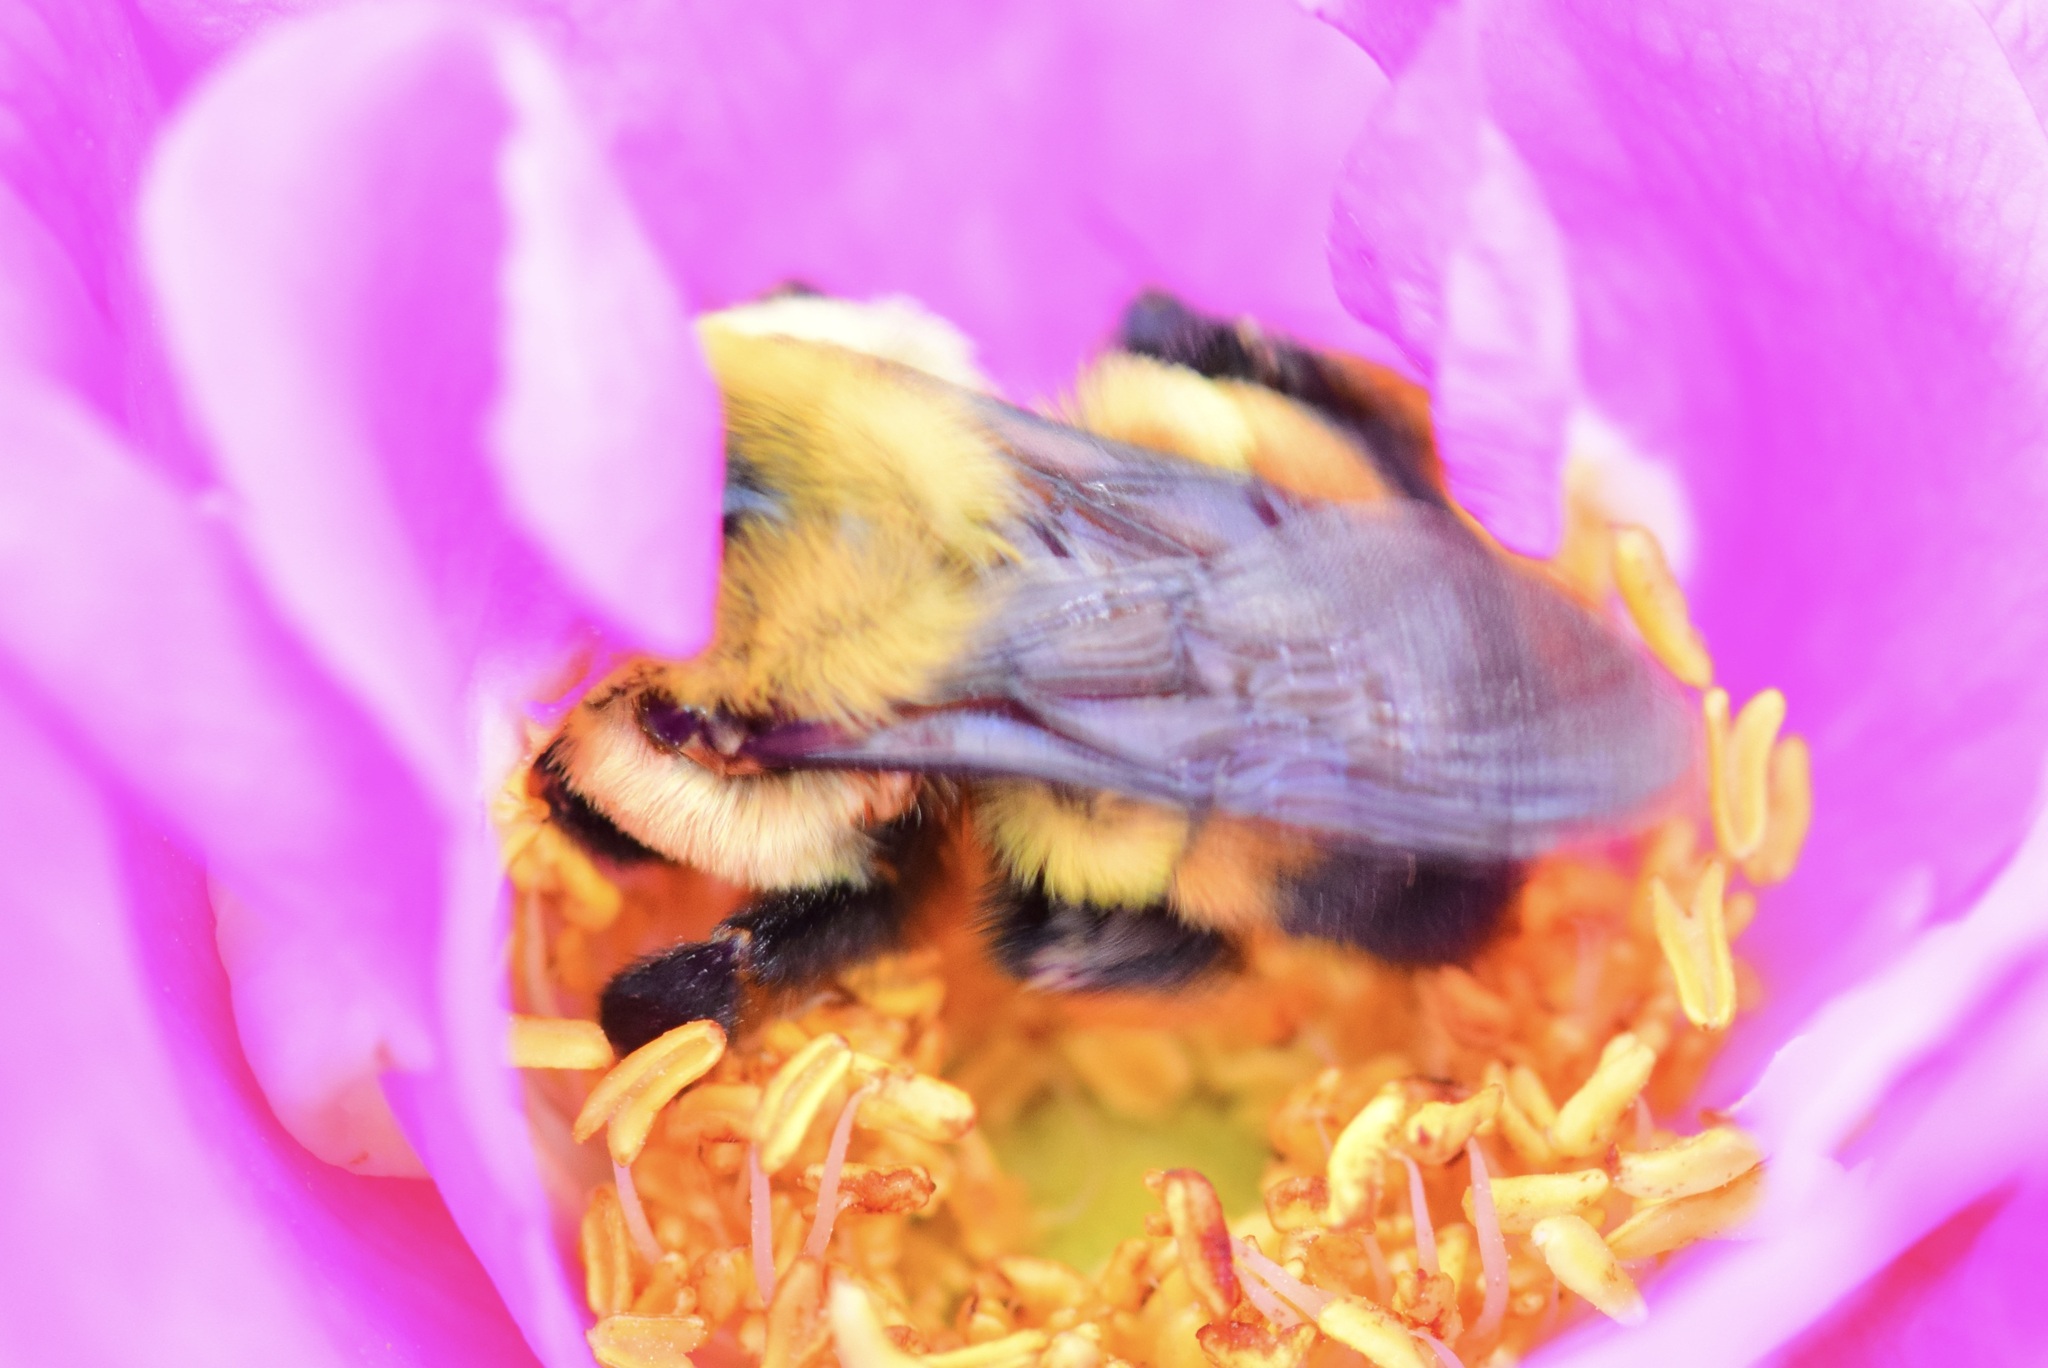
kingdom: Animalia
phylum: Arthropoda
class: Insecta
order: Hymenoptera
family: Apidae
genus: Bombus
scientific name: Bombus griseocollis
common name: Brown-belted bumble bee
